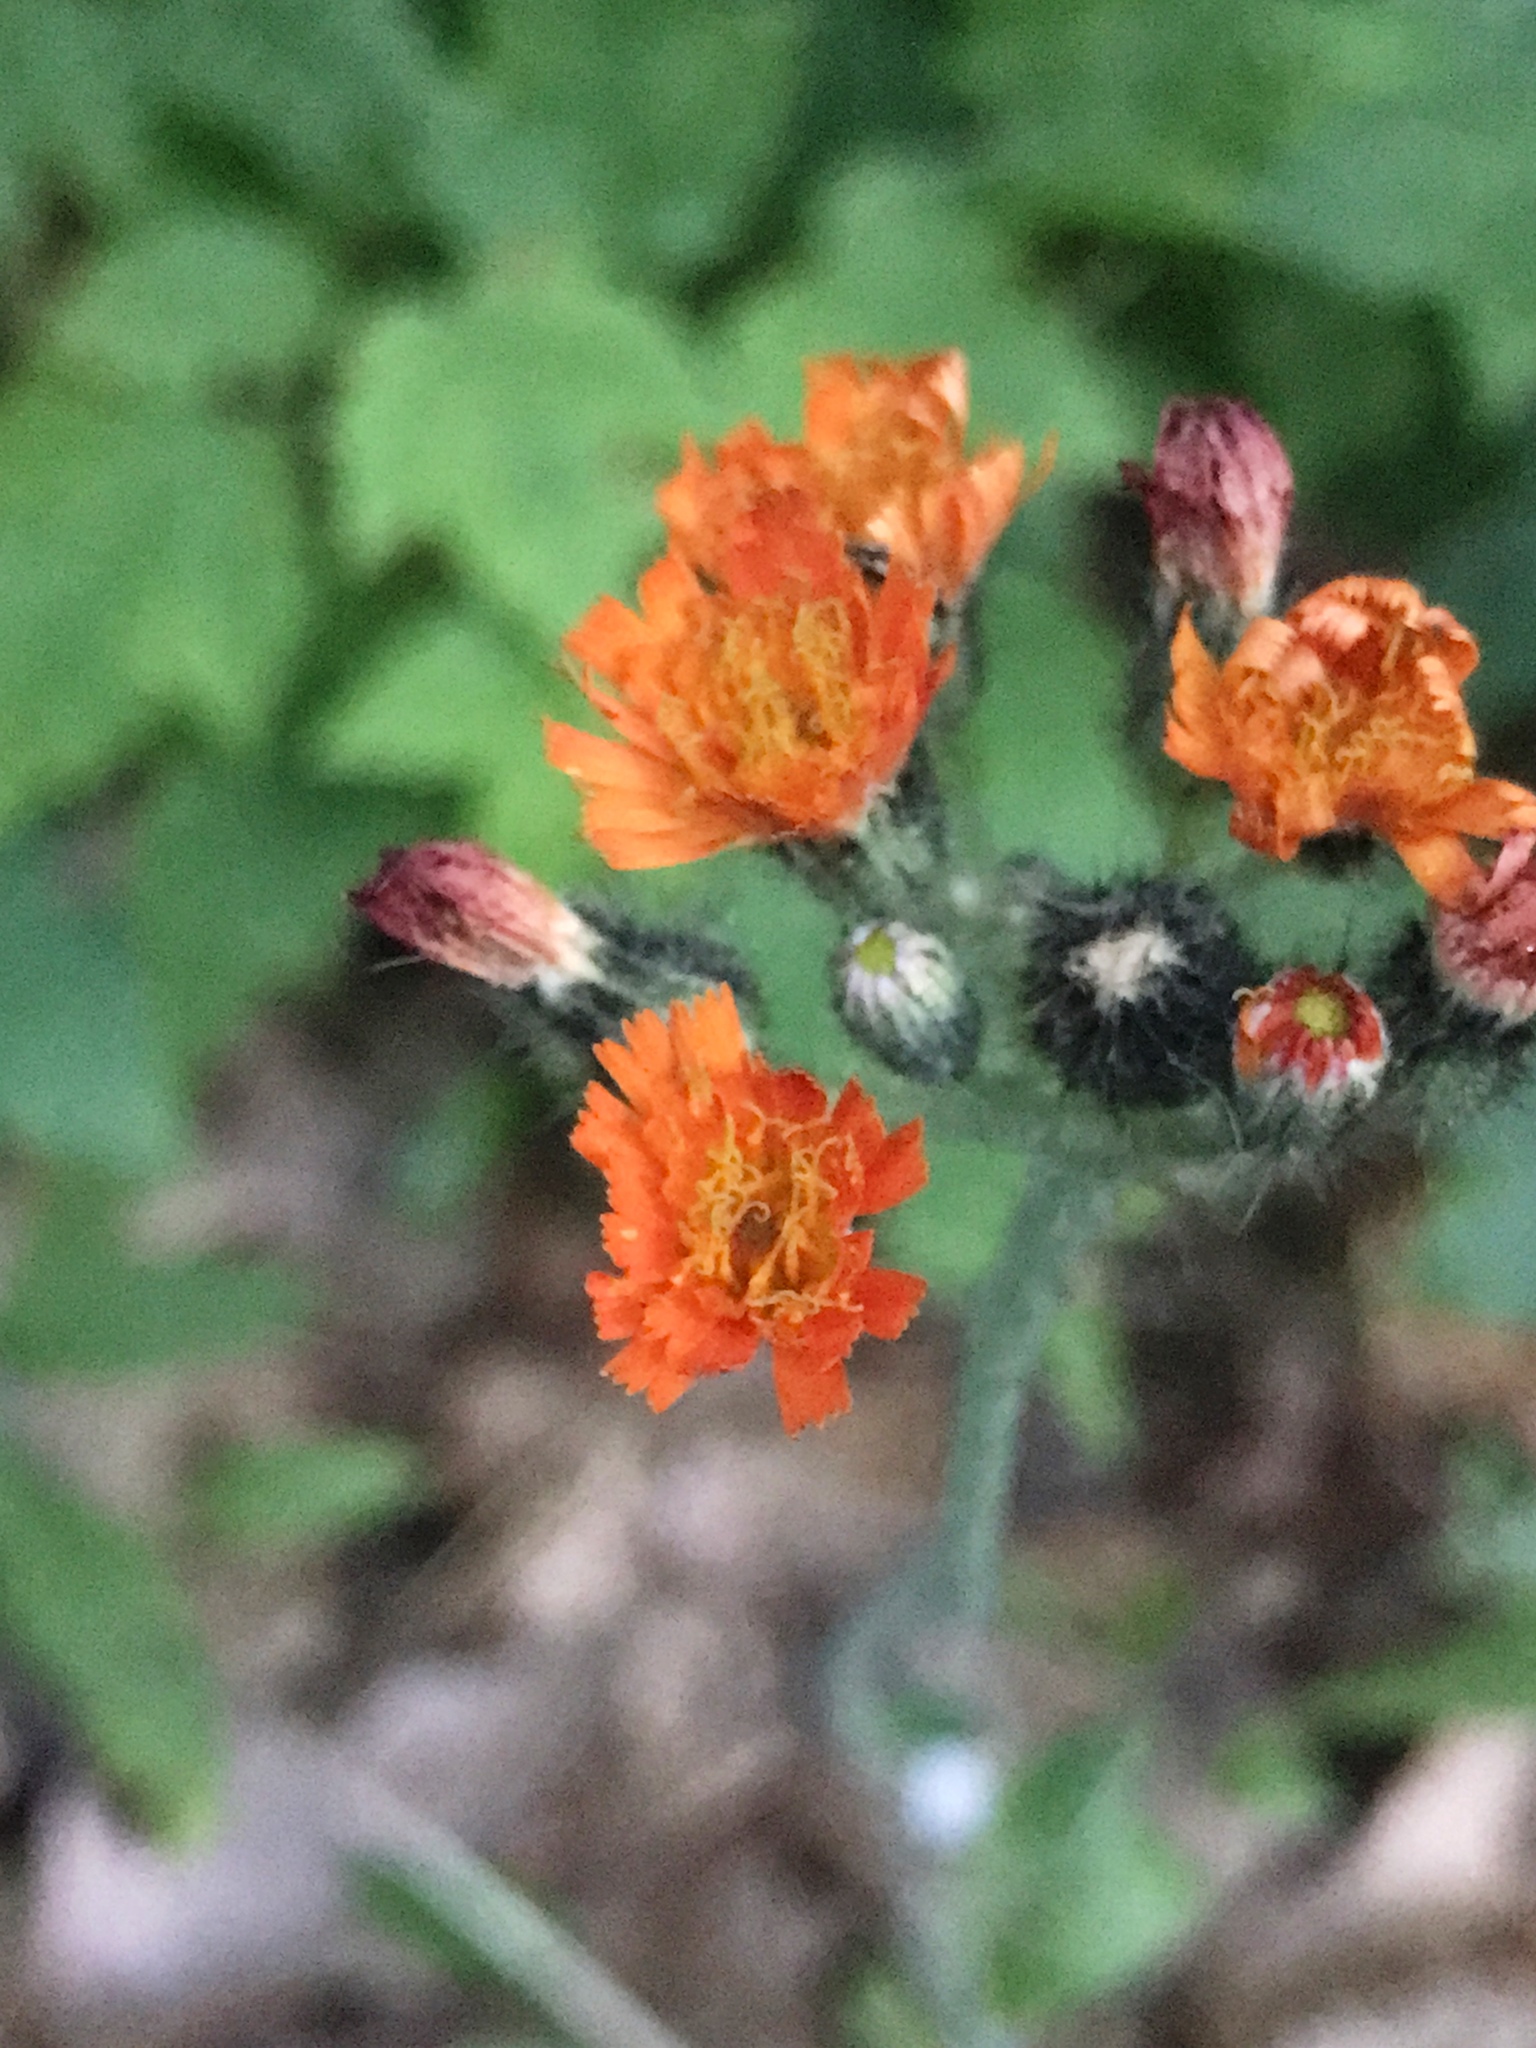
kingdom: Plantae
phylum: Tracheophyta
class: Magnoliopsida
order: Asterales
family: Asteraceae
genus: Pilosella
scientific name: Pilosella aurantiaca
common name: Fox-and-cubs
